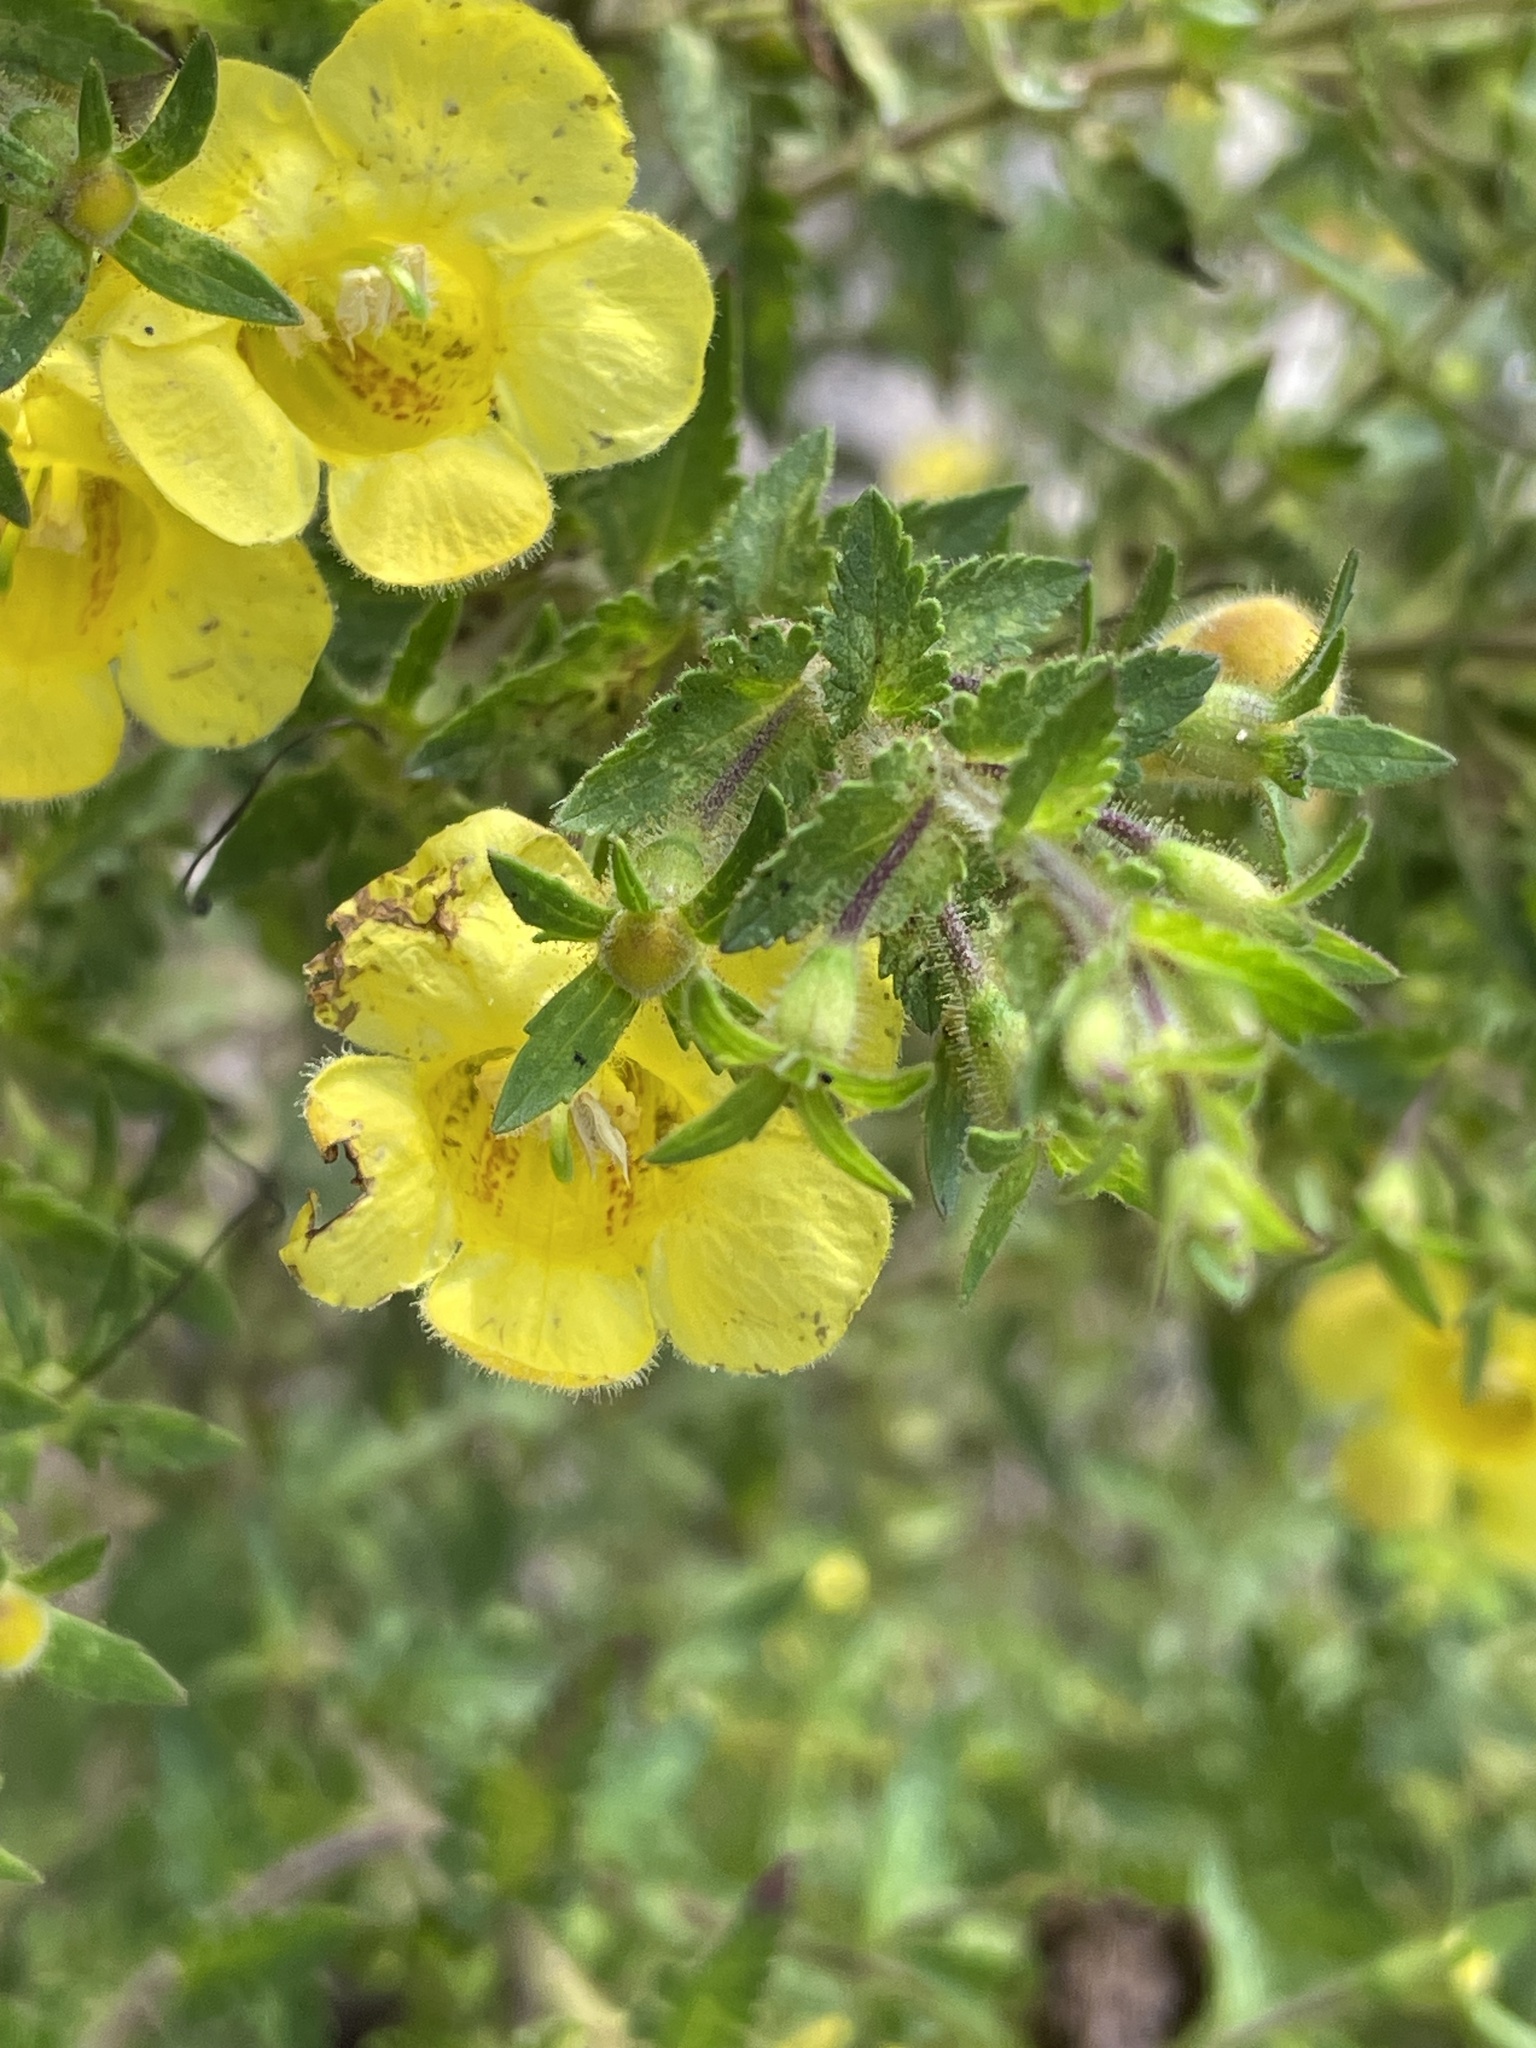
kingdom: Plantae
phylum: Tracheophyta
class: Magnoliopsida
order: Lamiales
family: Orobanchaceae
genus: Aureolaria
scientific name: Aureolaria pectinata
